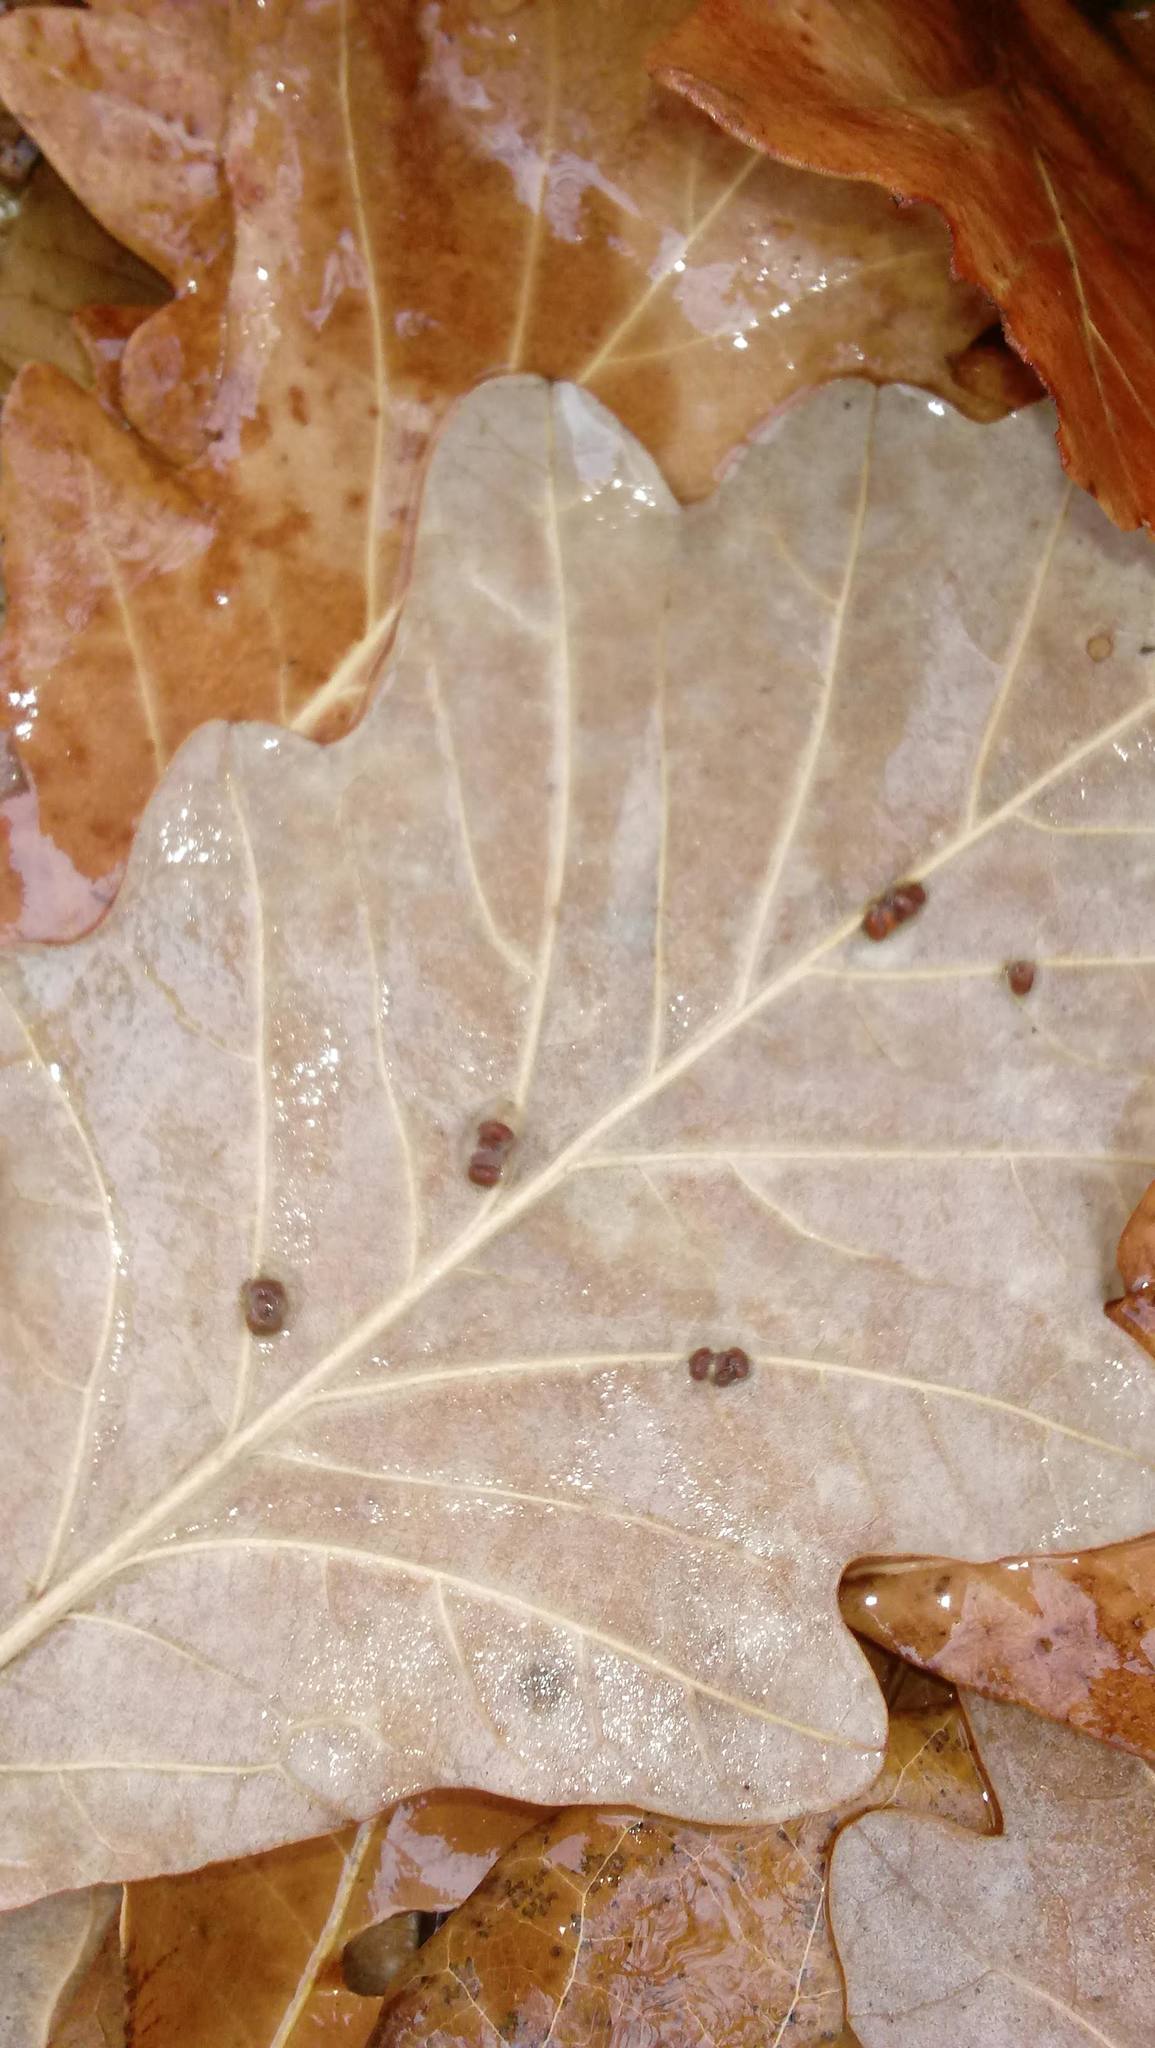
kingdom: Animalia
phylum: Arthropoda
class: Insecta
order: Hymenoptera
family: Cynipidae
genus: Andricus
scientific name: Andricus Druon ignotum
